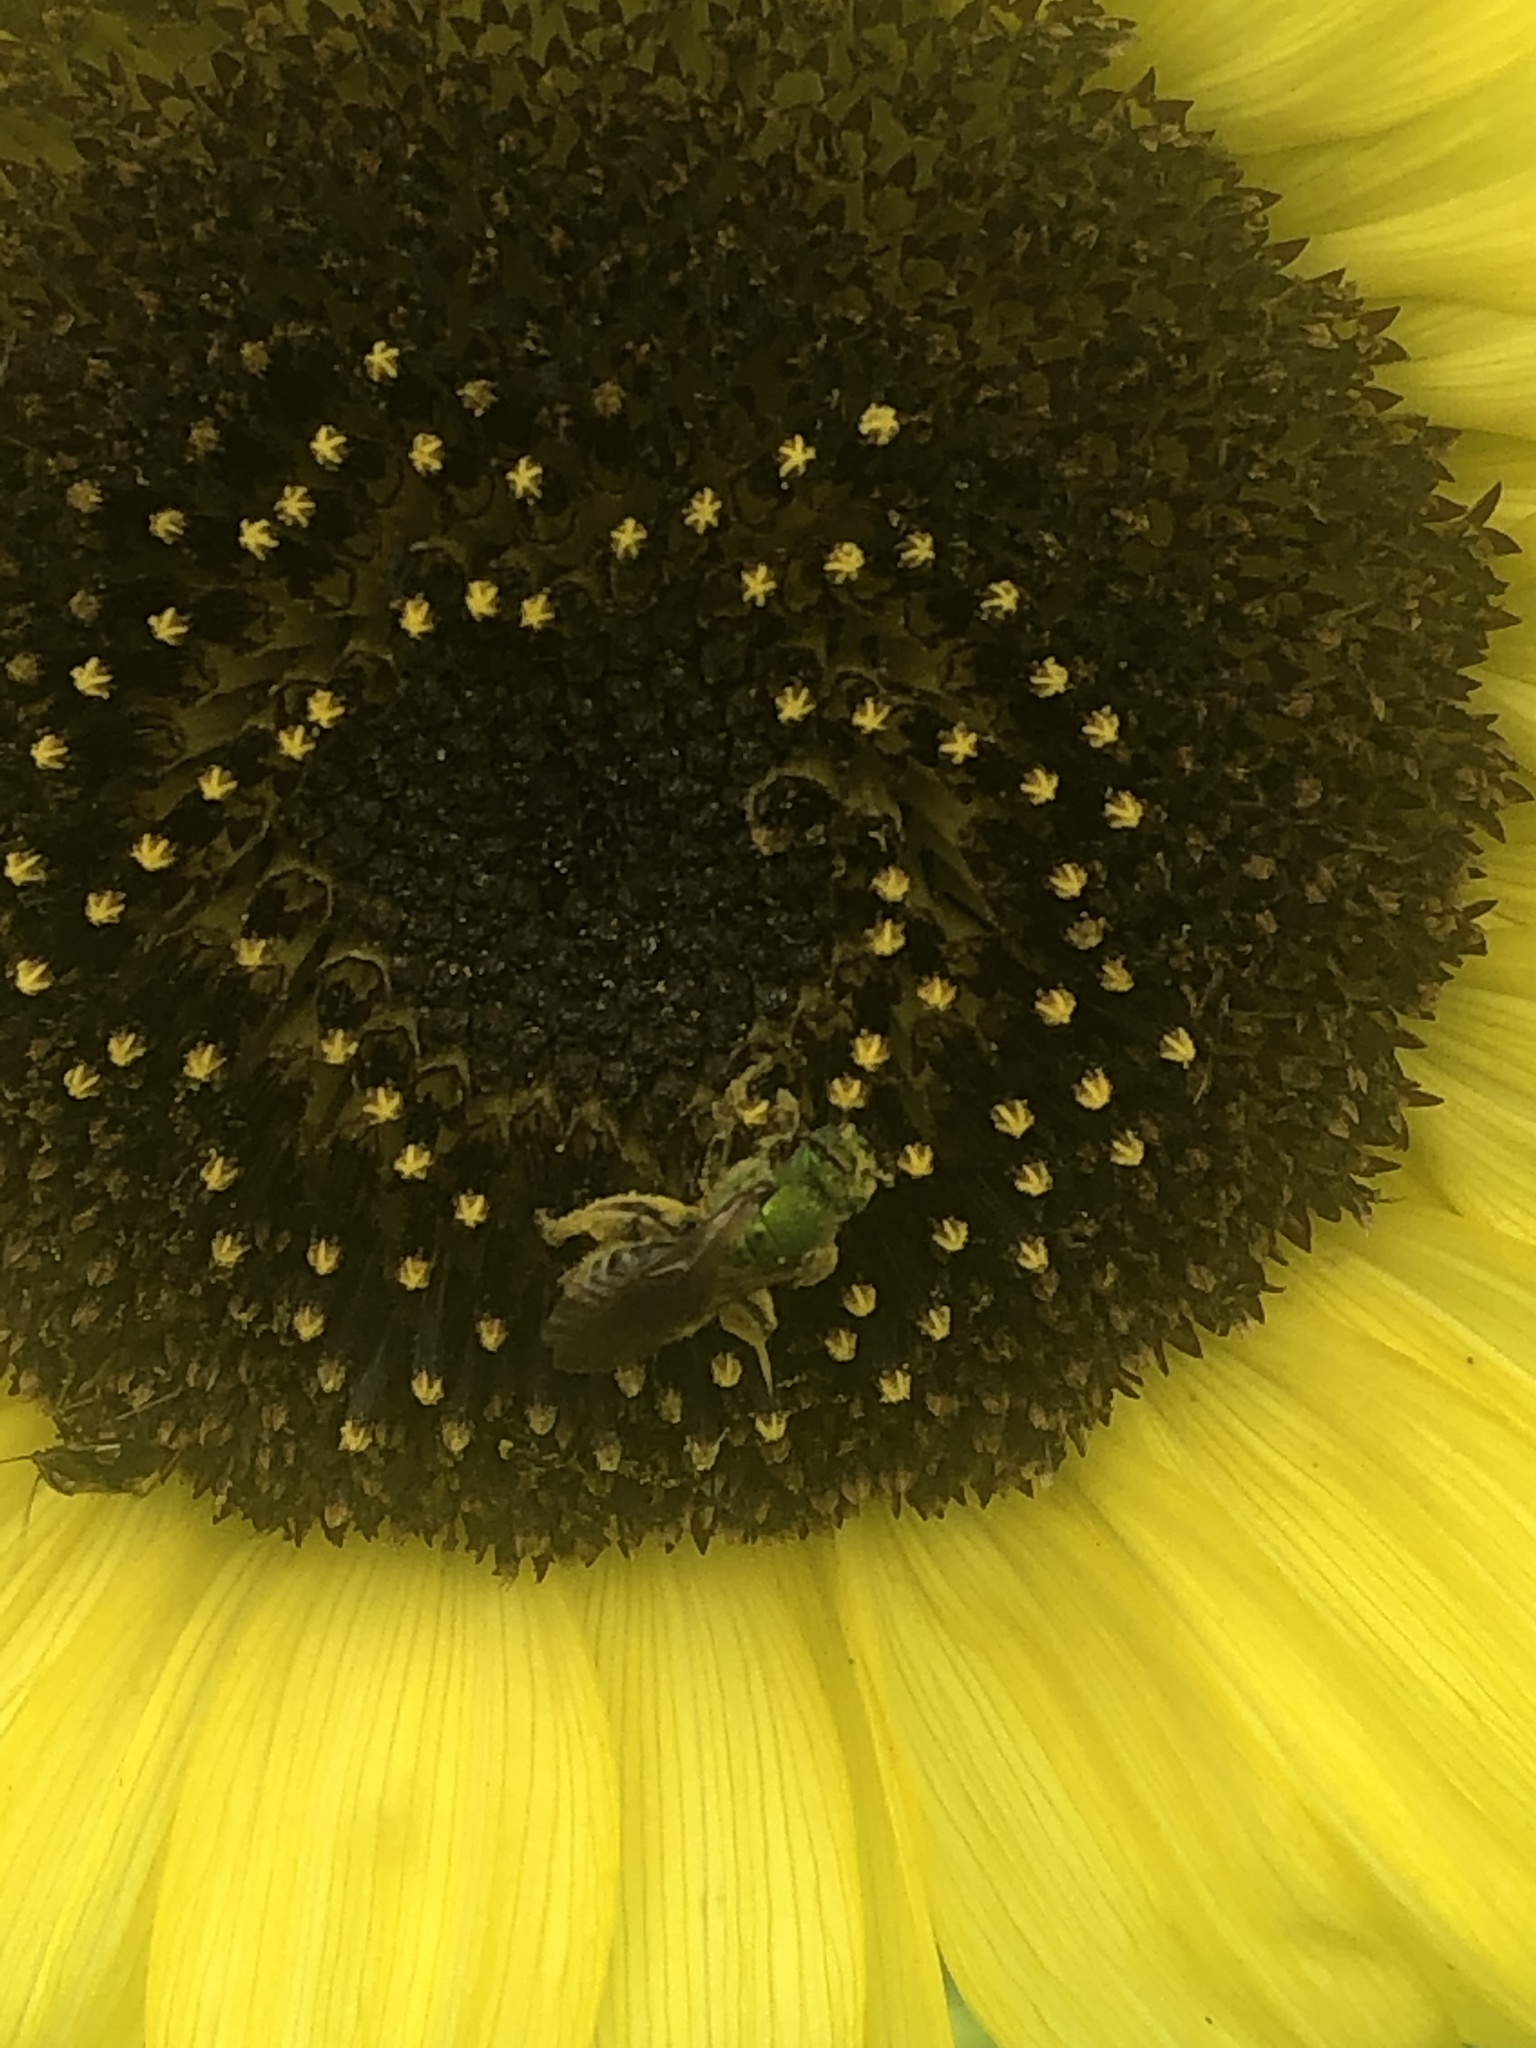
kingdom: Animalia
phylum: Arthropoda
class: Insecta
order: Hymenoptera
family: Halictidae
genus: Agapostemon
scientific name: Agapostemon virescens
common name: Bicolored striped sweat bee
